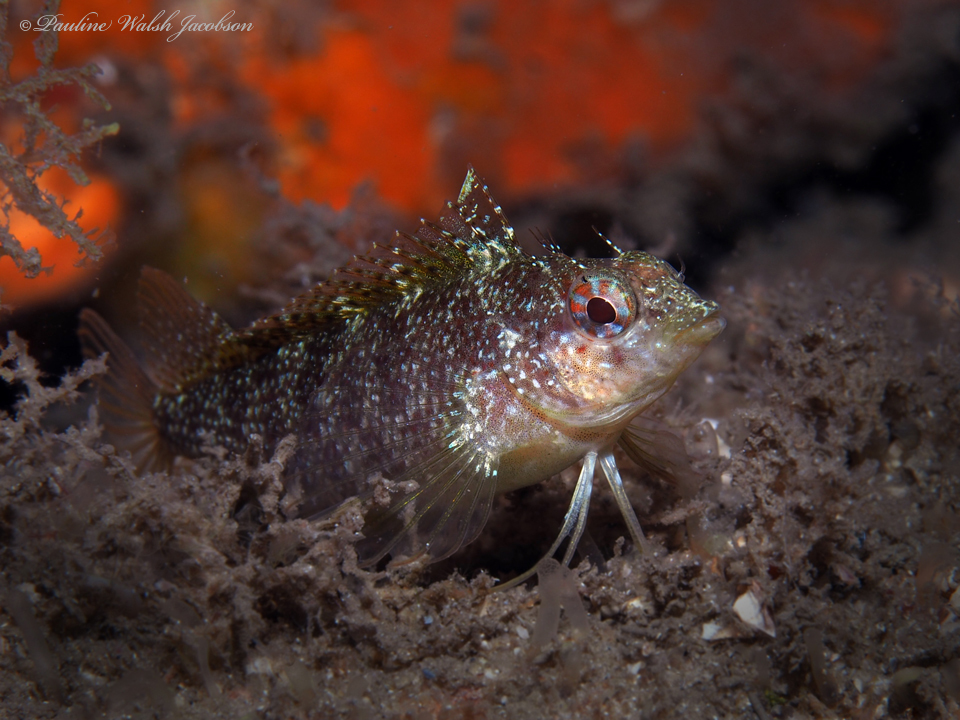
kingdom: Animalia
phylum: Chordata
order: Perciformes
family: Labrisomidae
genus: Malacoctenus
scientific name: Malacoctenus macropus
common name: Rosy blenny
